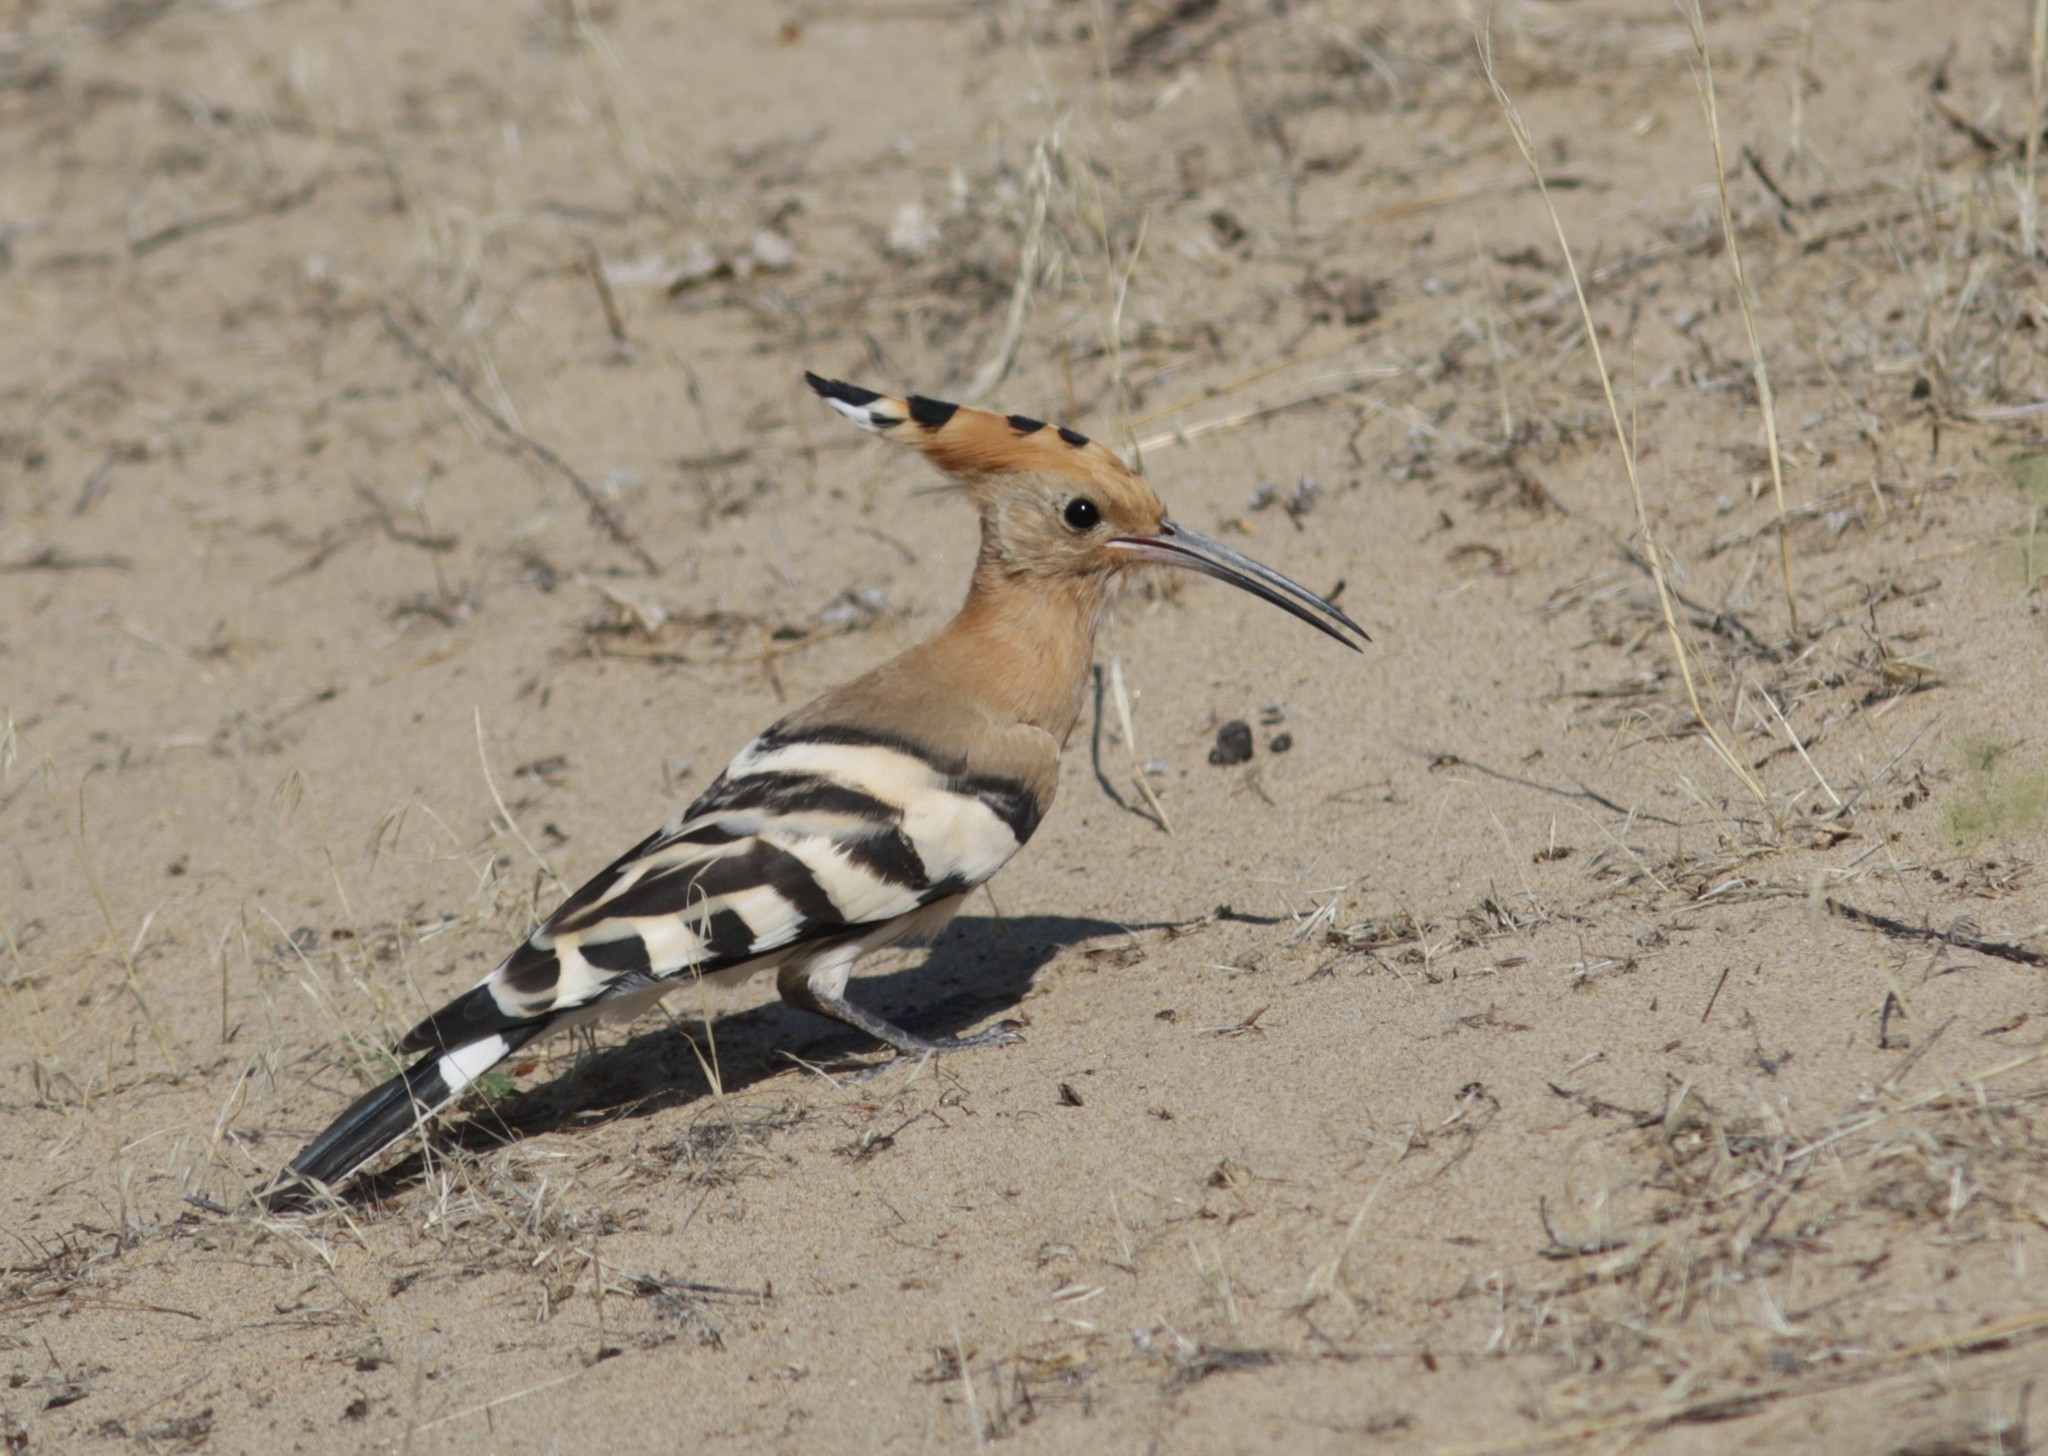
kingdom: Animalia
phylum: Chordata
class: Aves
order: Bucerotiformes
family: Upupidae
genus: Upupa
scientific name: Upupa epops
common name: Eurasian hoopoe
